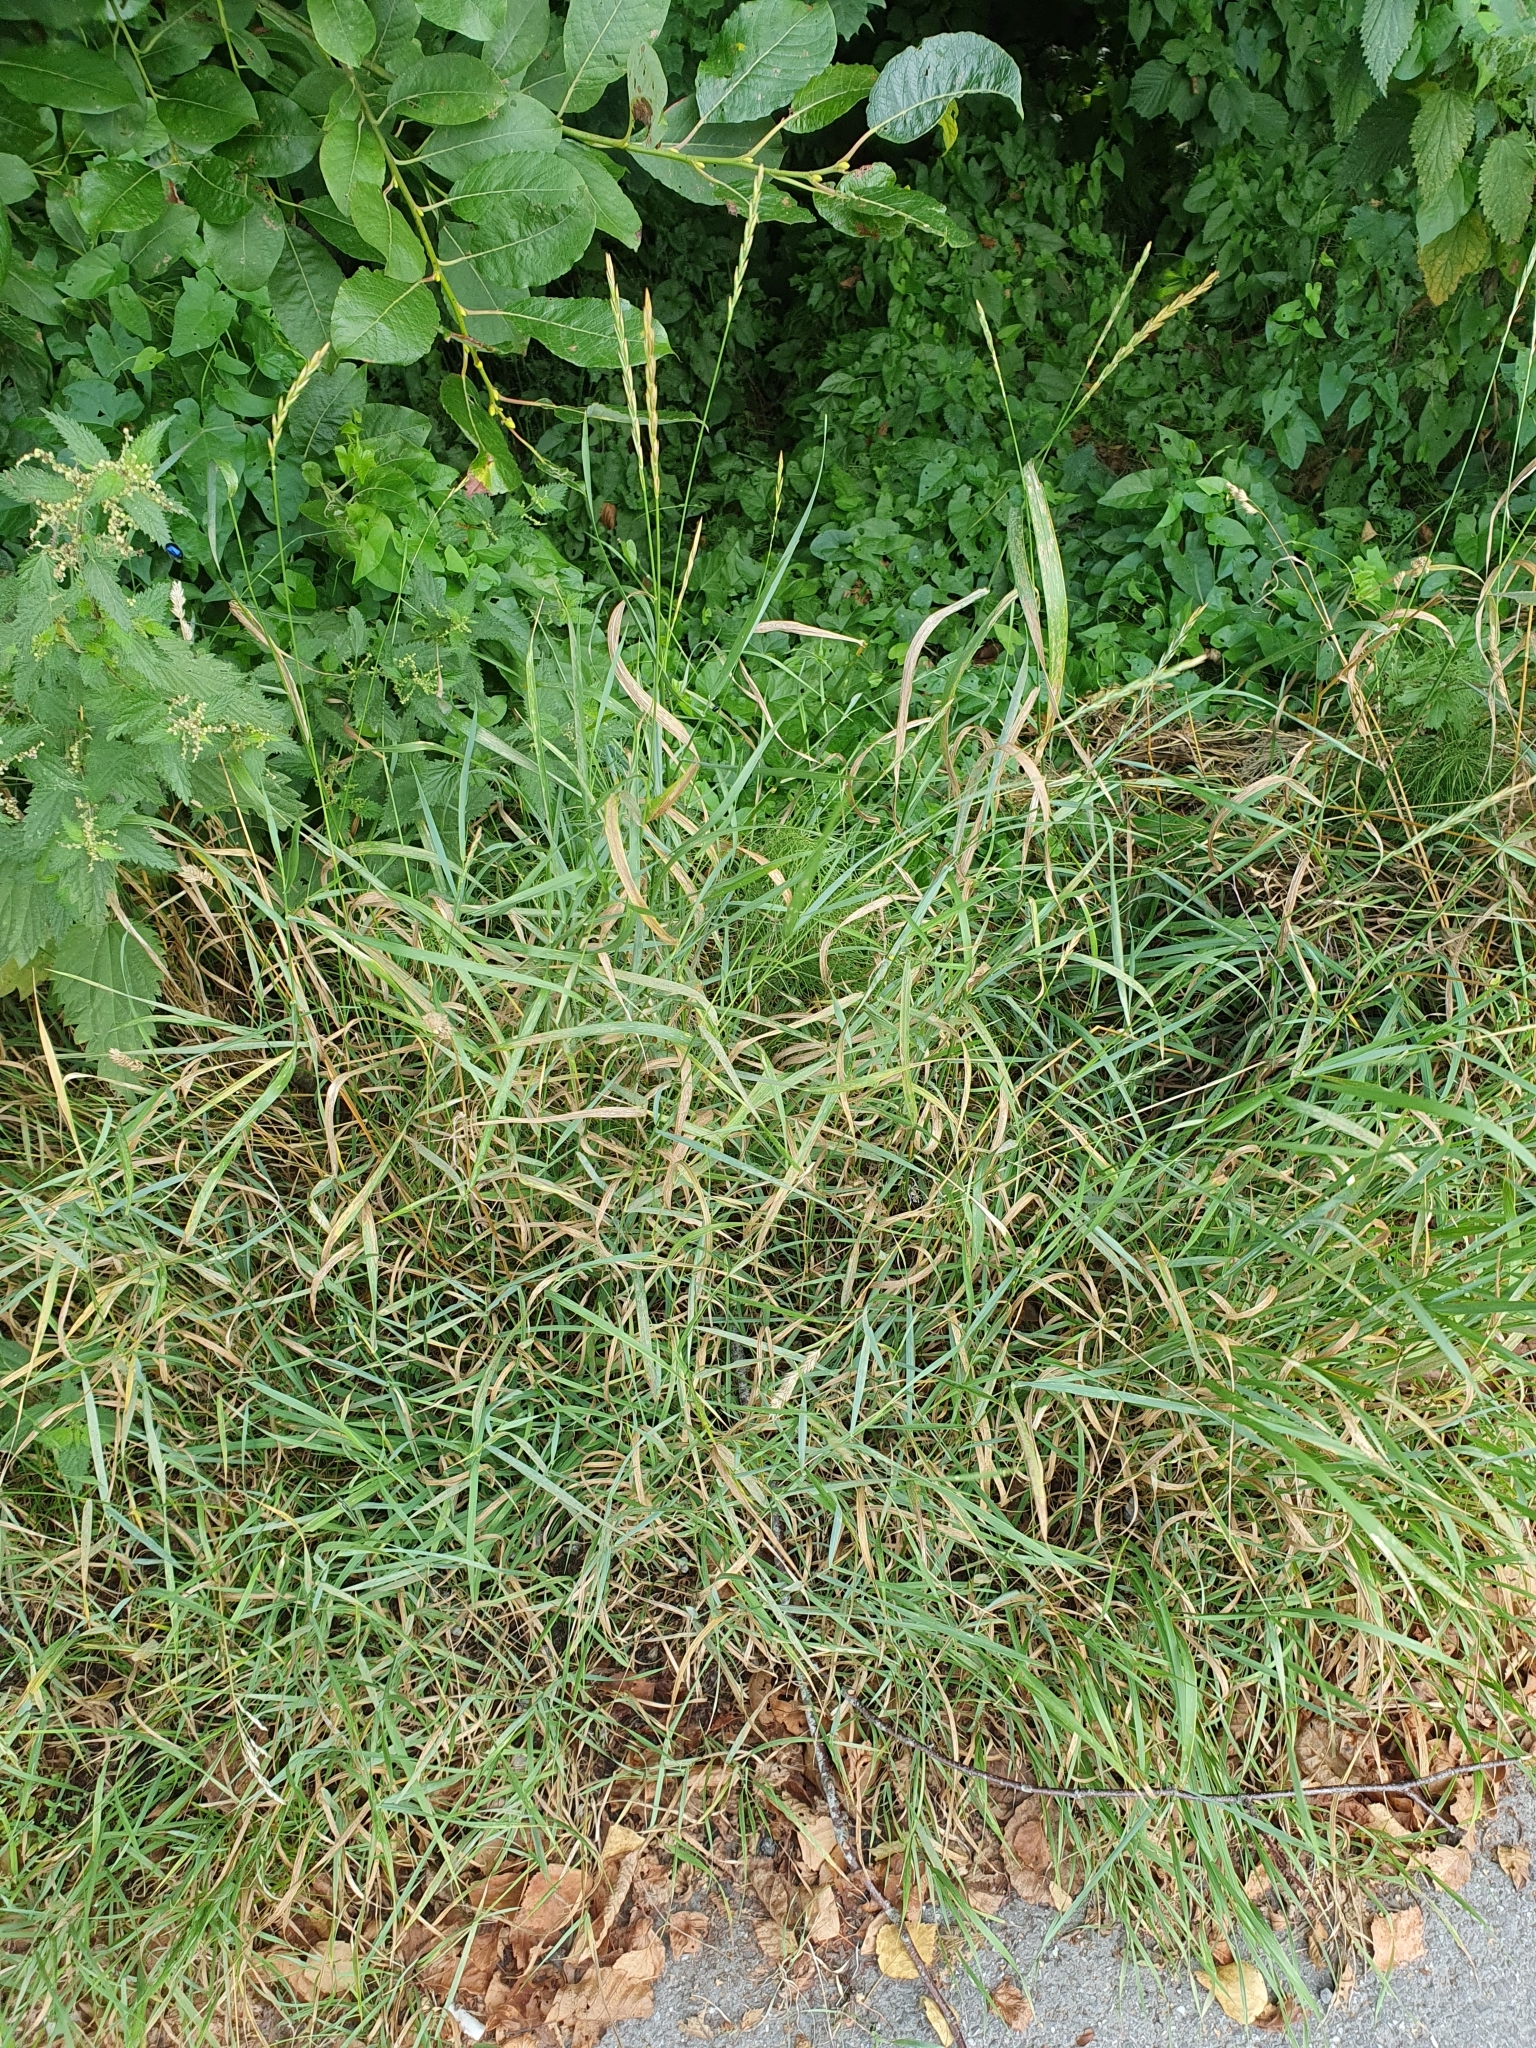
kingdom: Plantae
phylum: Tracheophyta
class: Liliopsida
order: Poales
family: Poaceae
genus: Elymus
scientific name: Elymus repens
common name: Quackgrass
